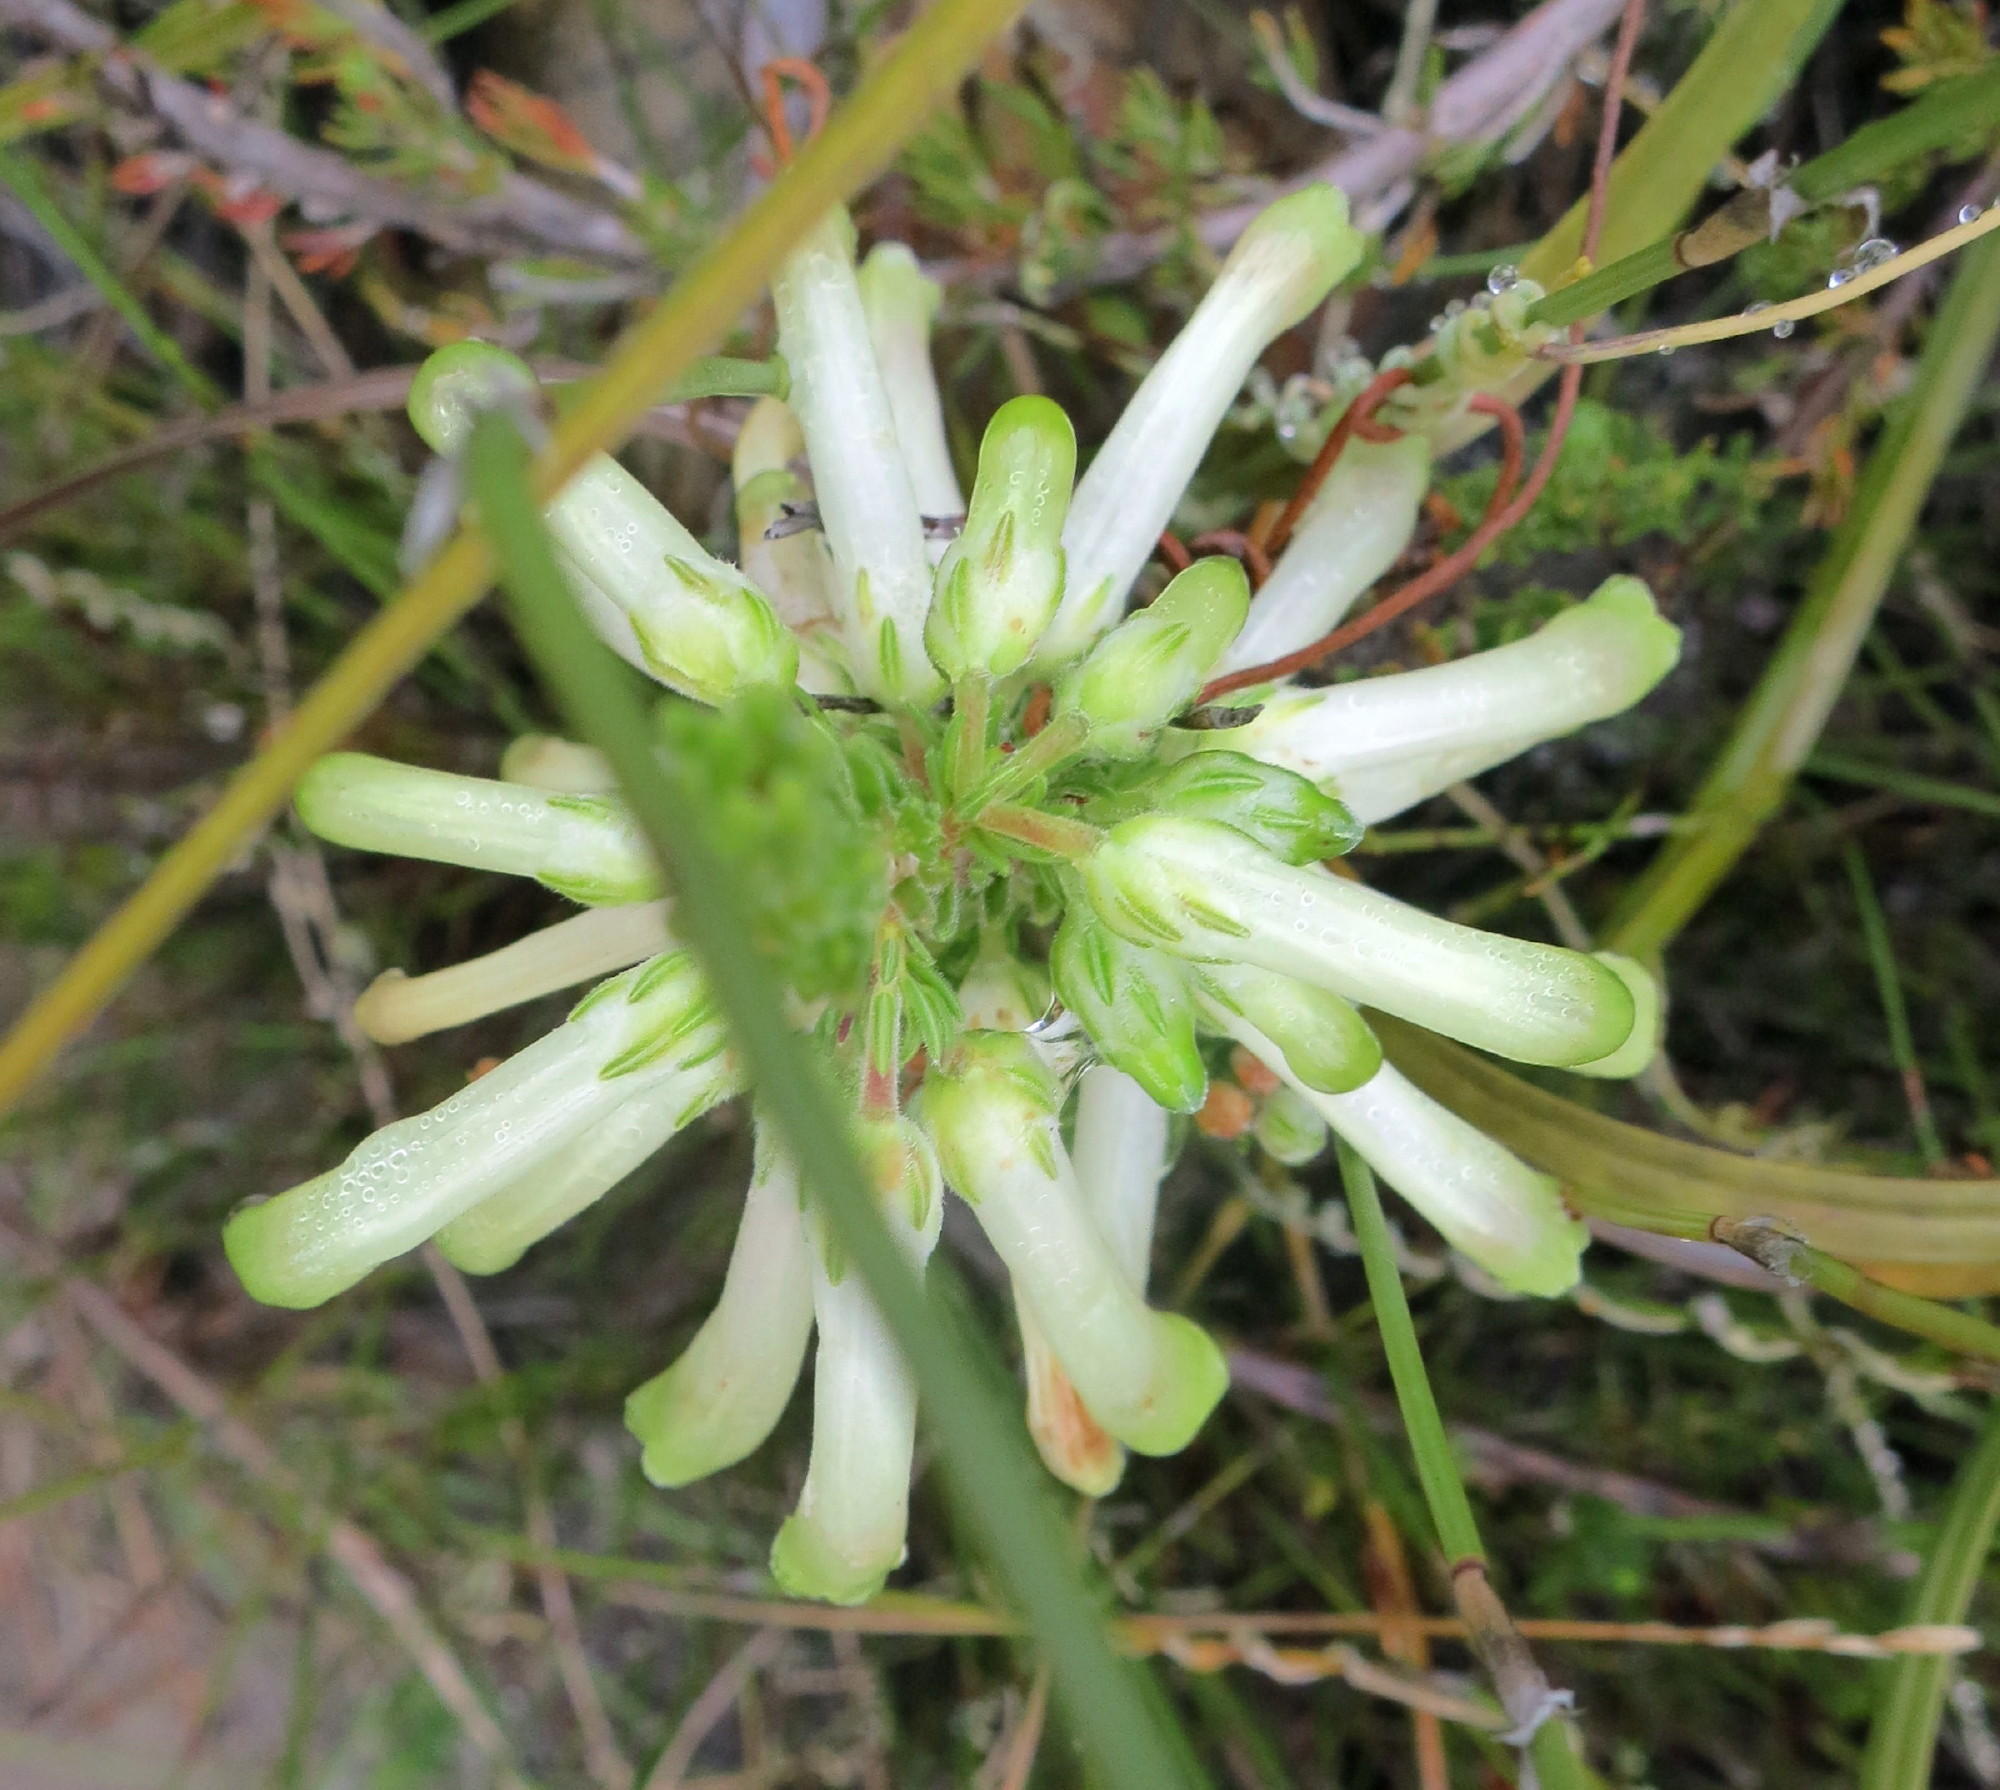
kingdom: Plantae
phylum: Tracheophyta
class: Magnoliopsida
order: Ericales
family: Ericaceae
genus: Erica
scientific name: Erica discolor
